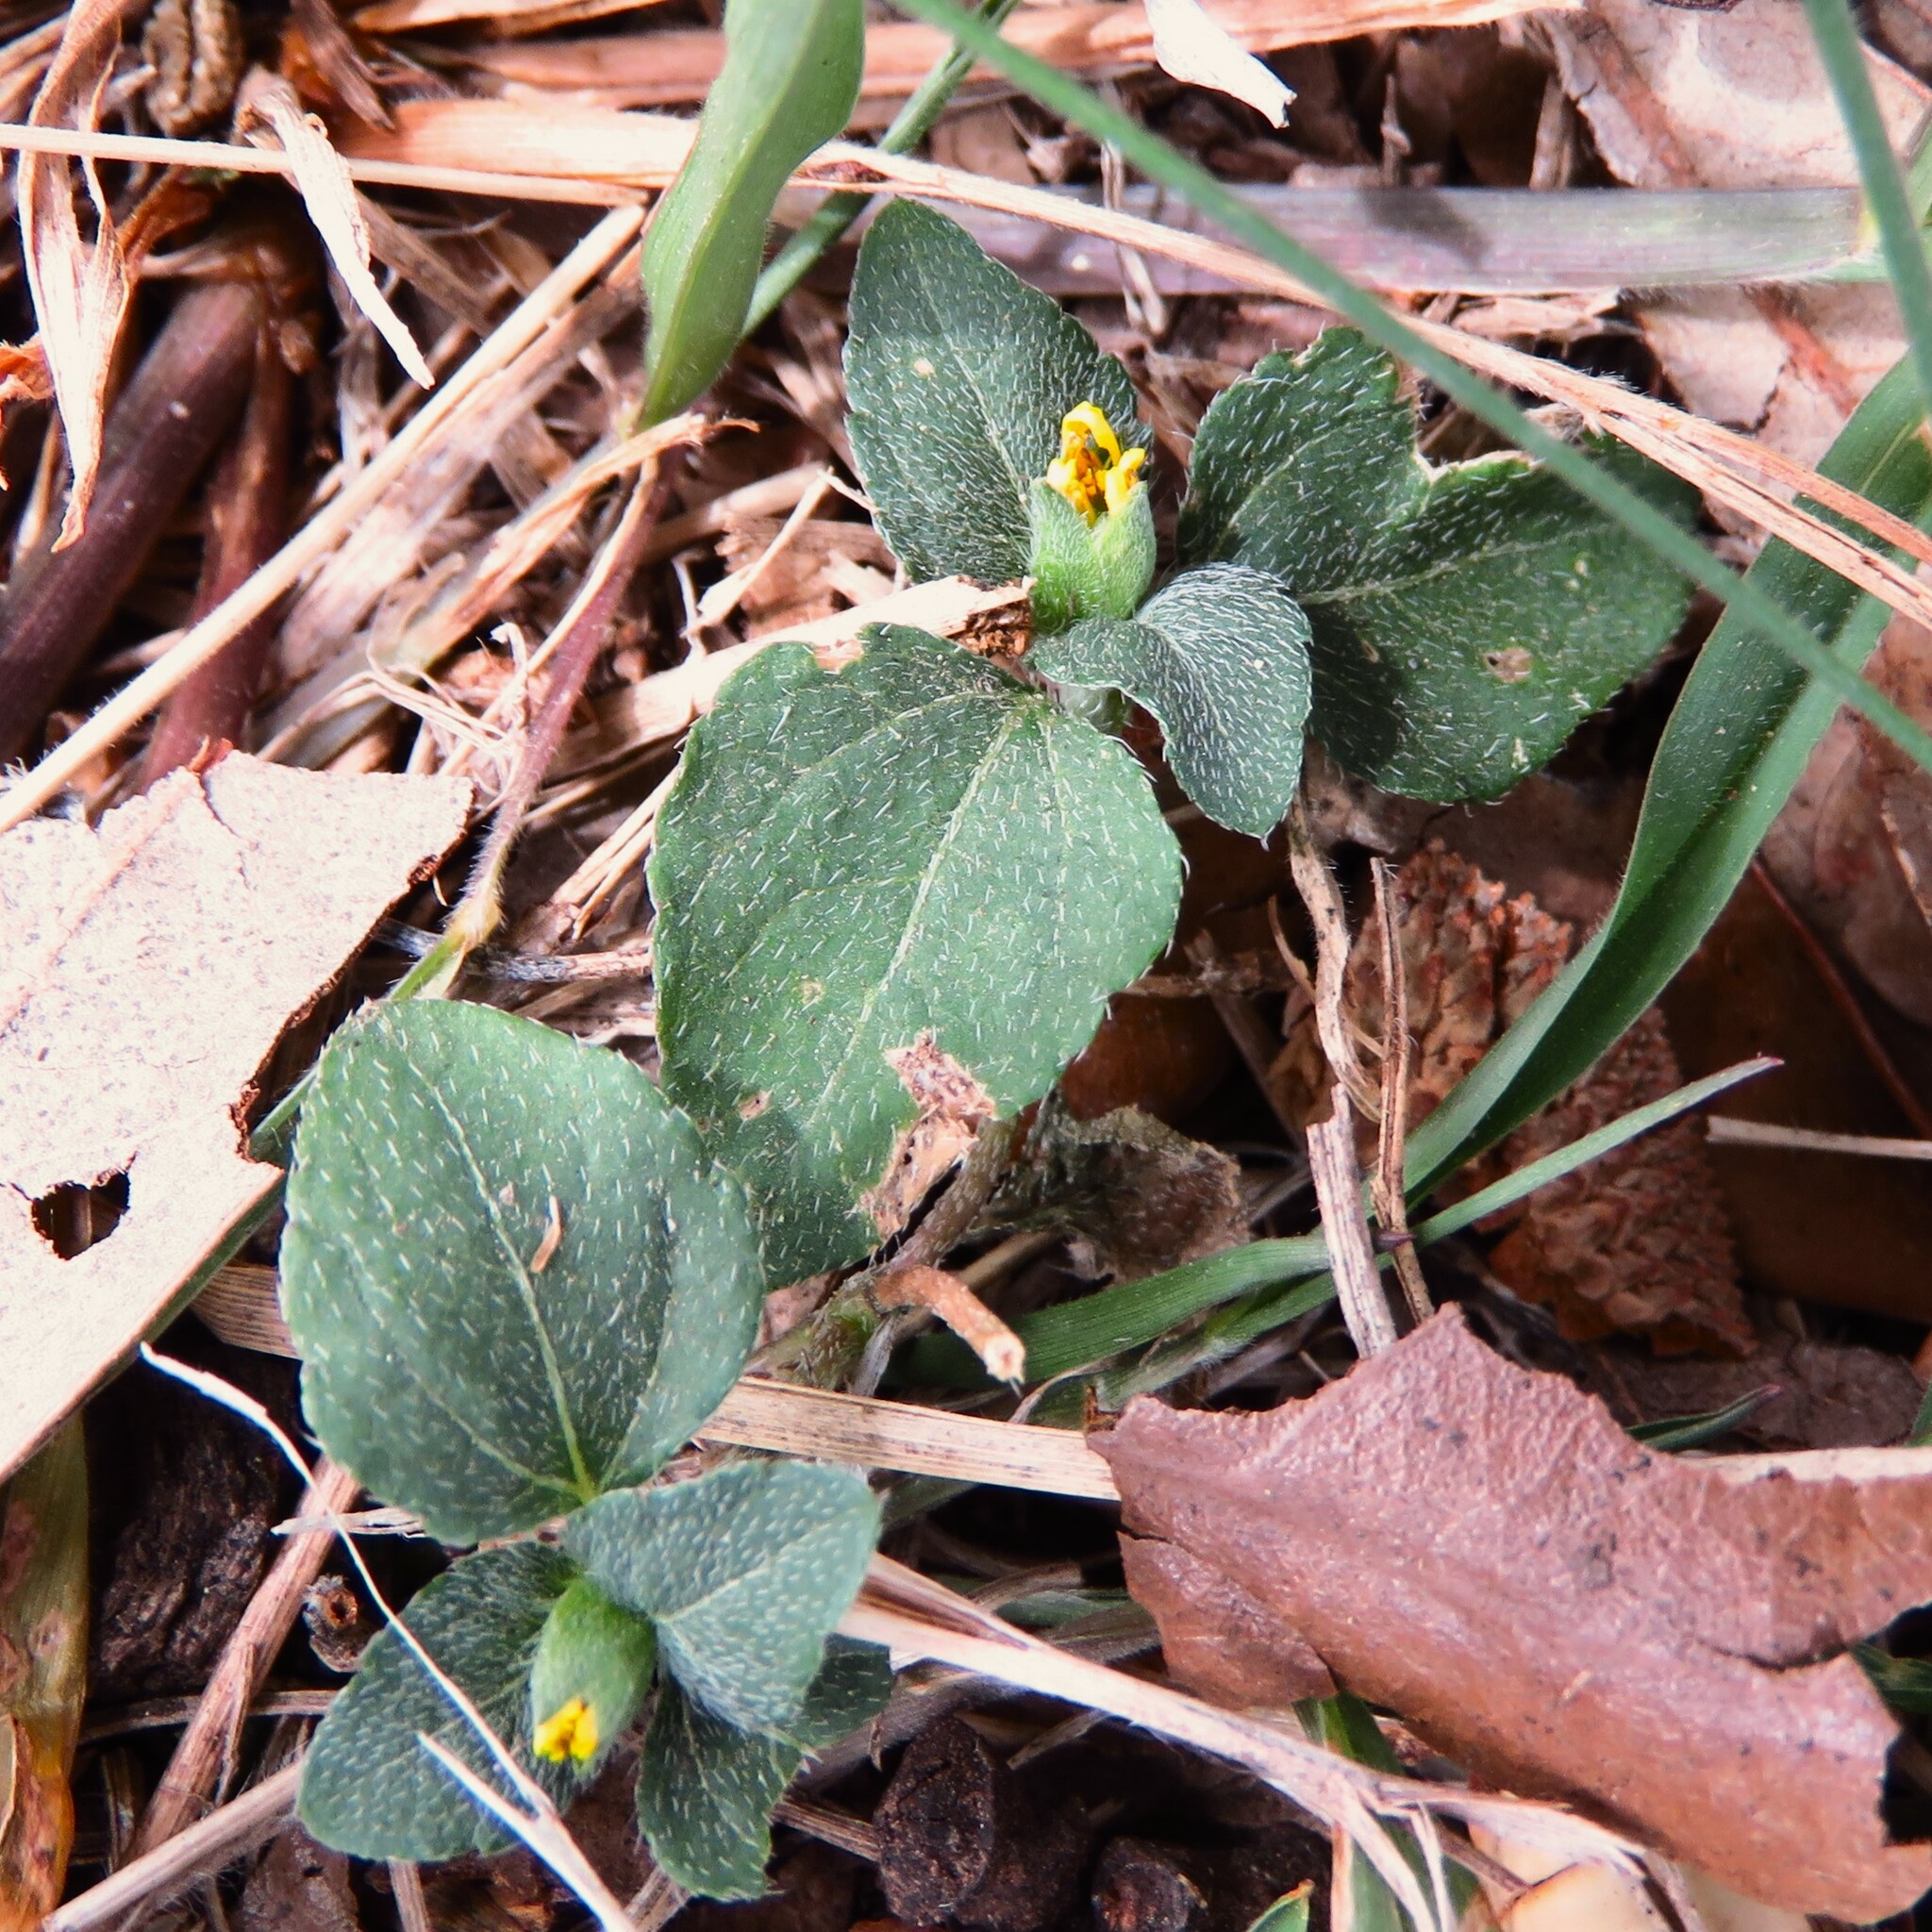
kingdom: Plantae
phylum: Tracheophyta
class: Magnoliopsida
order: Asterales
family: Asteraceae
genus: Calyptocarpus
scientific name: Calyptocarpus vialis
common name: Straggler daisy
